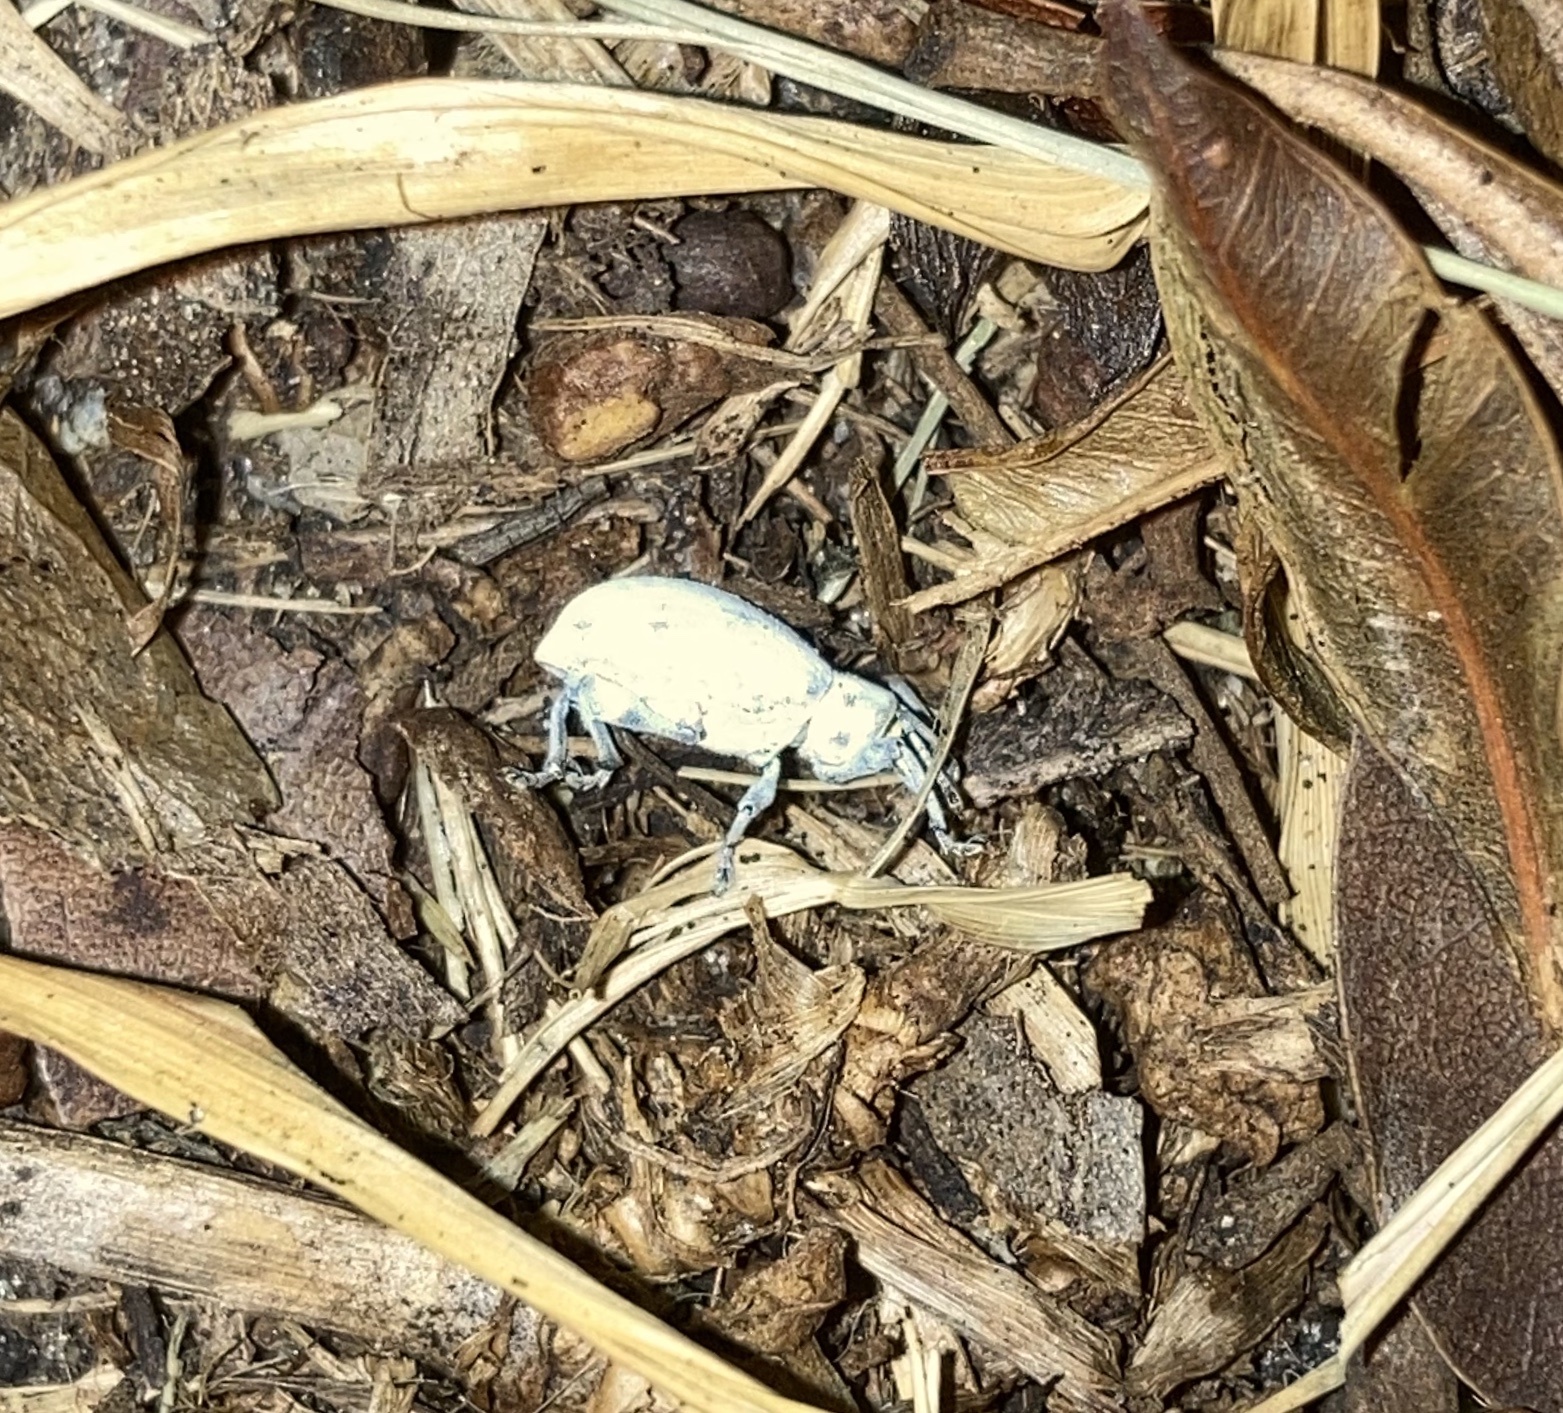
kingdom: Animalia
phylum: Arthropoda
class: Insecta
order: Coleoptera
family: Curculionidae
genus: Myllocerus
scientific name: Myllocerus undecimpustulatus
